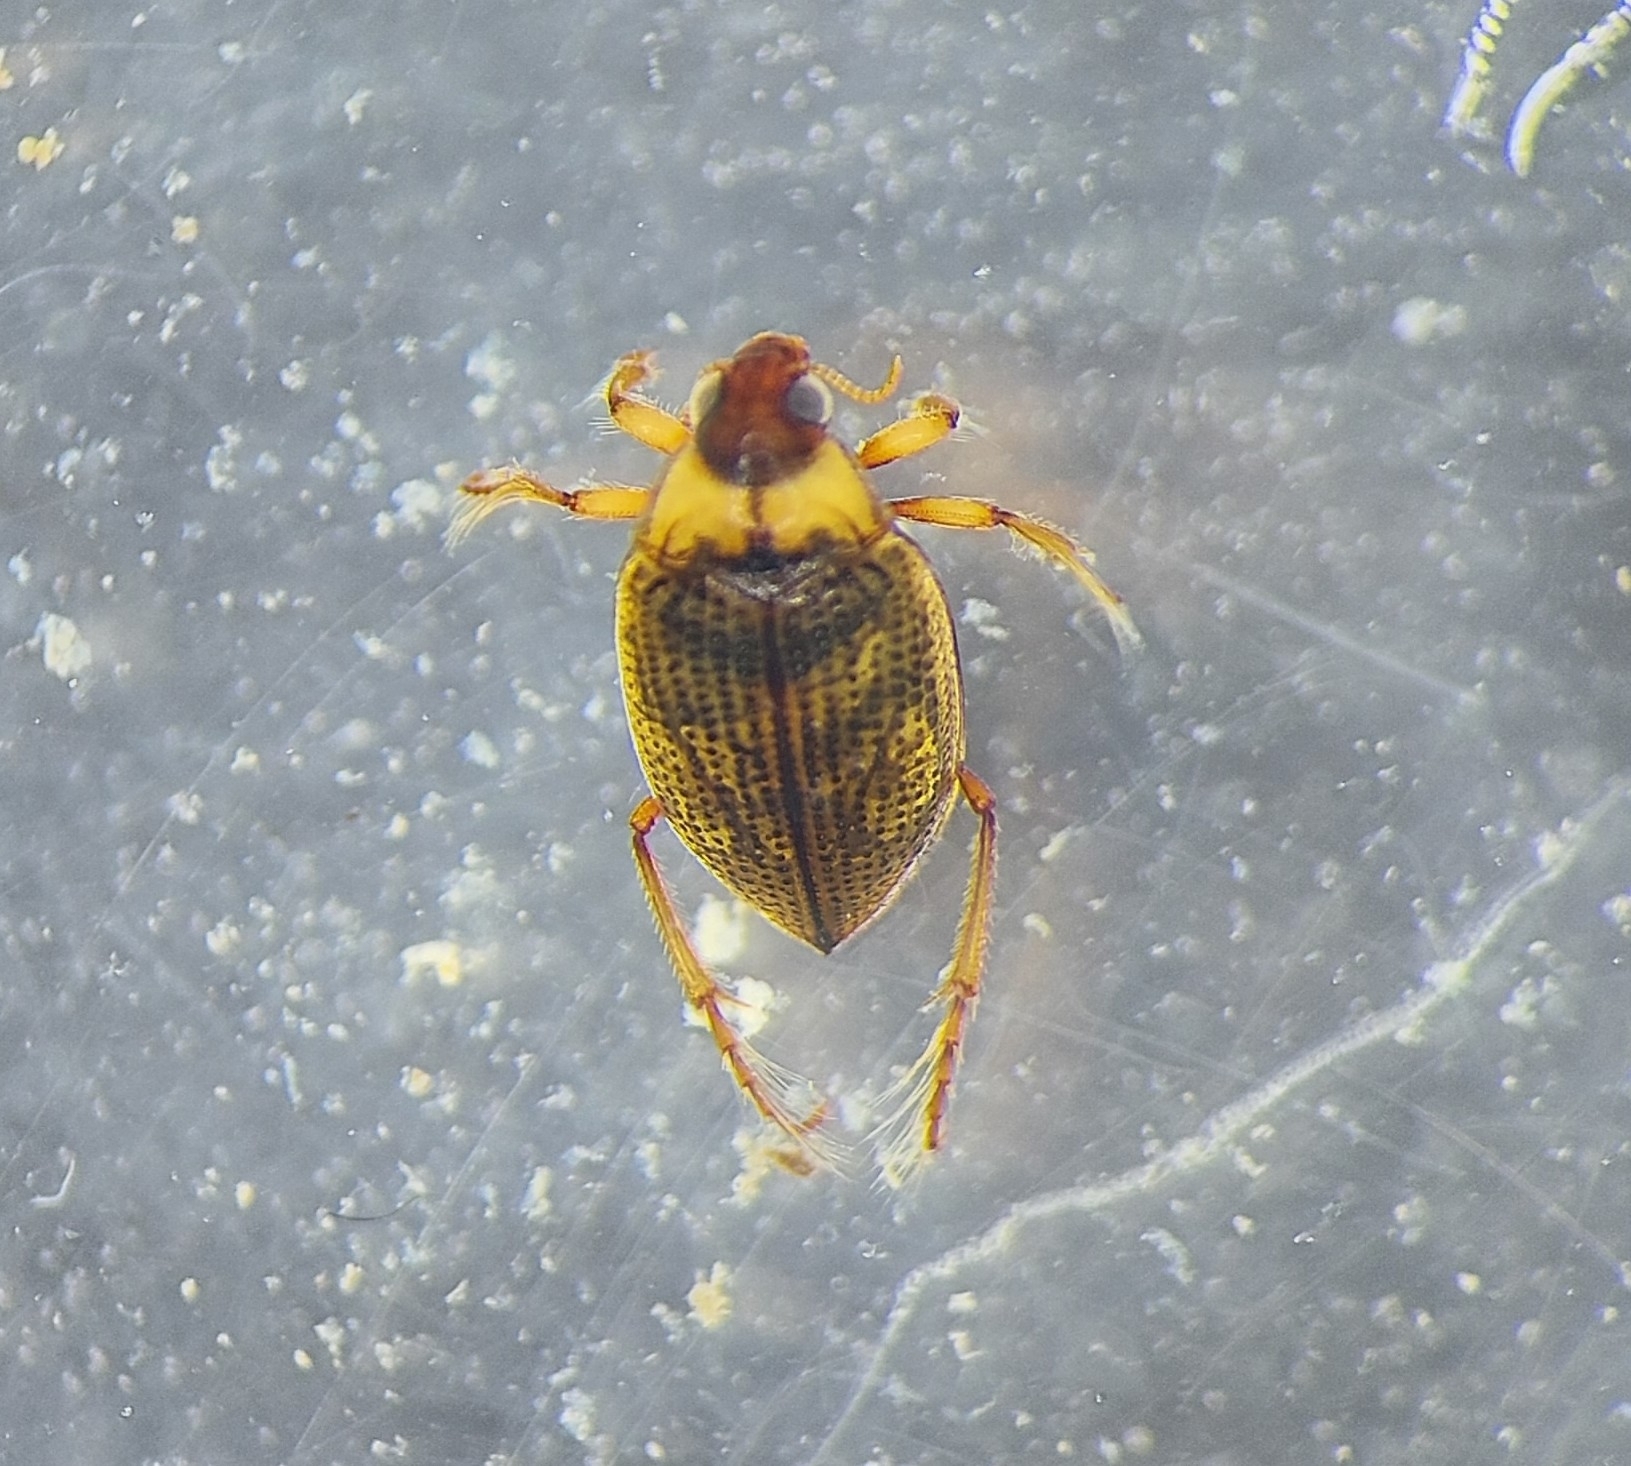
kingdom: Animalia
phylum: Arthropoda
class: Insecta
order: Coleoptera
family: Haliplidae
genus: Haliplus
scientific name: Haliplus lineatocollis
